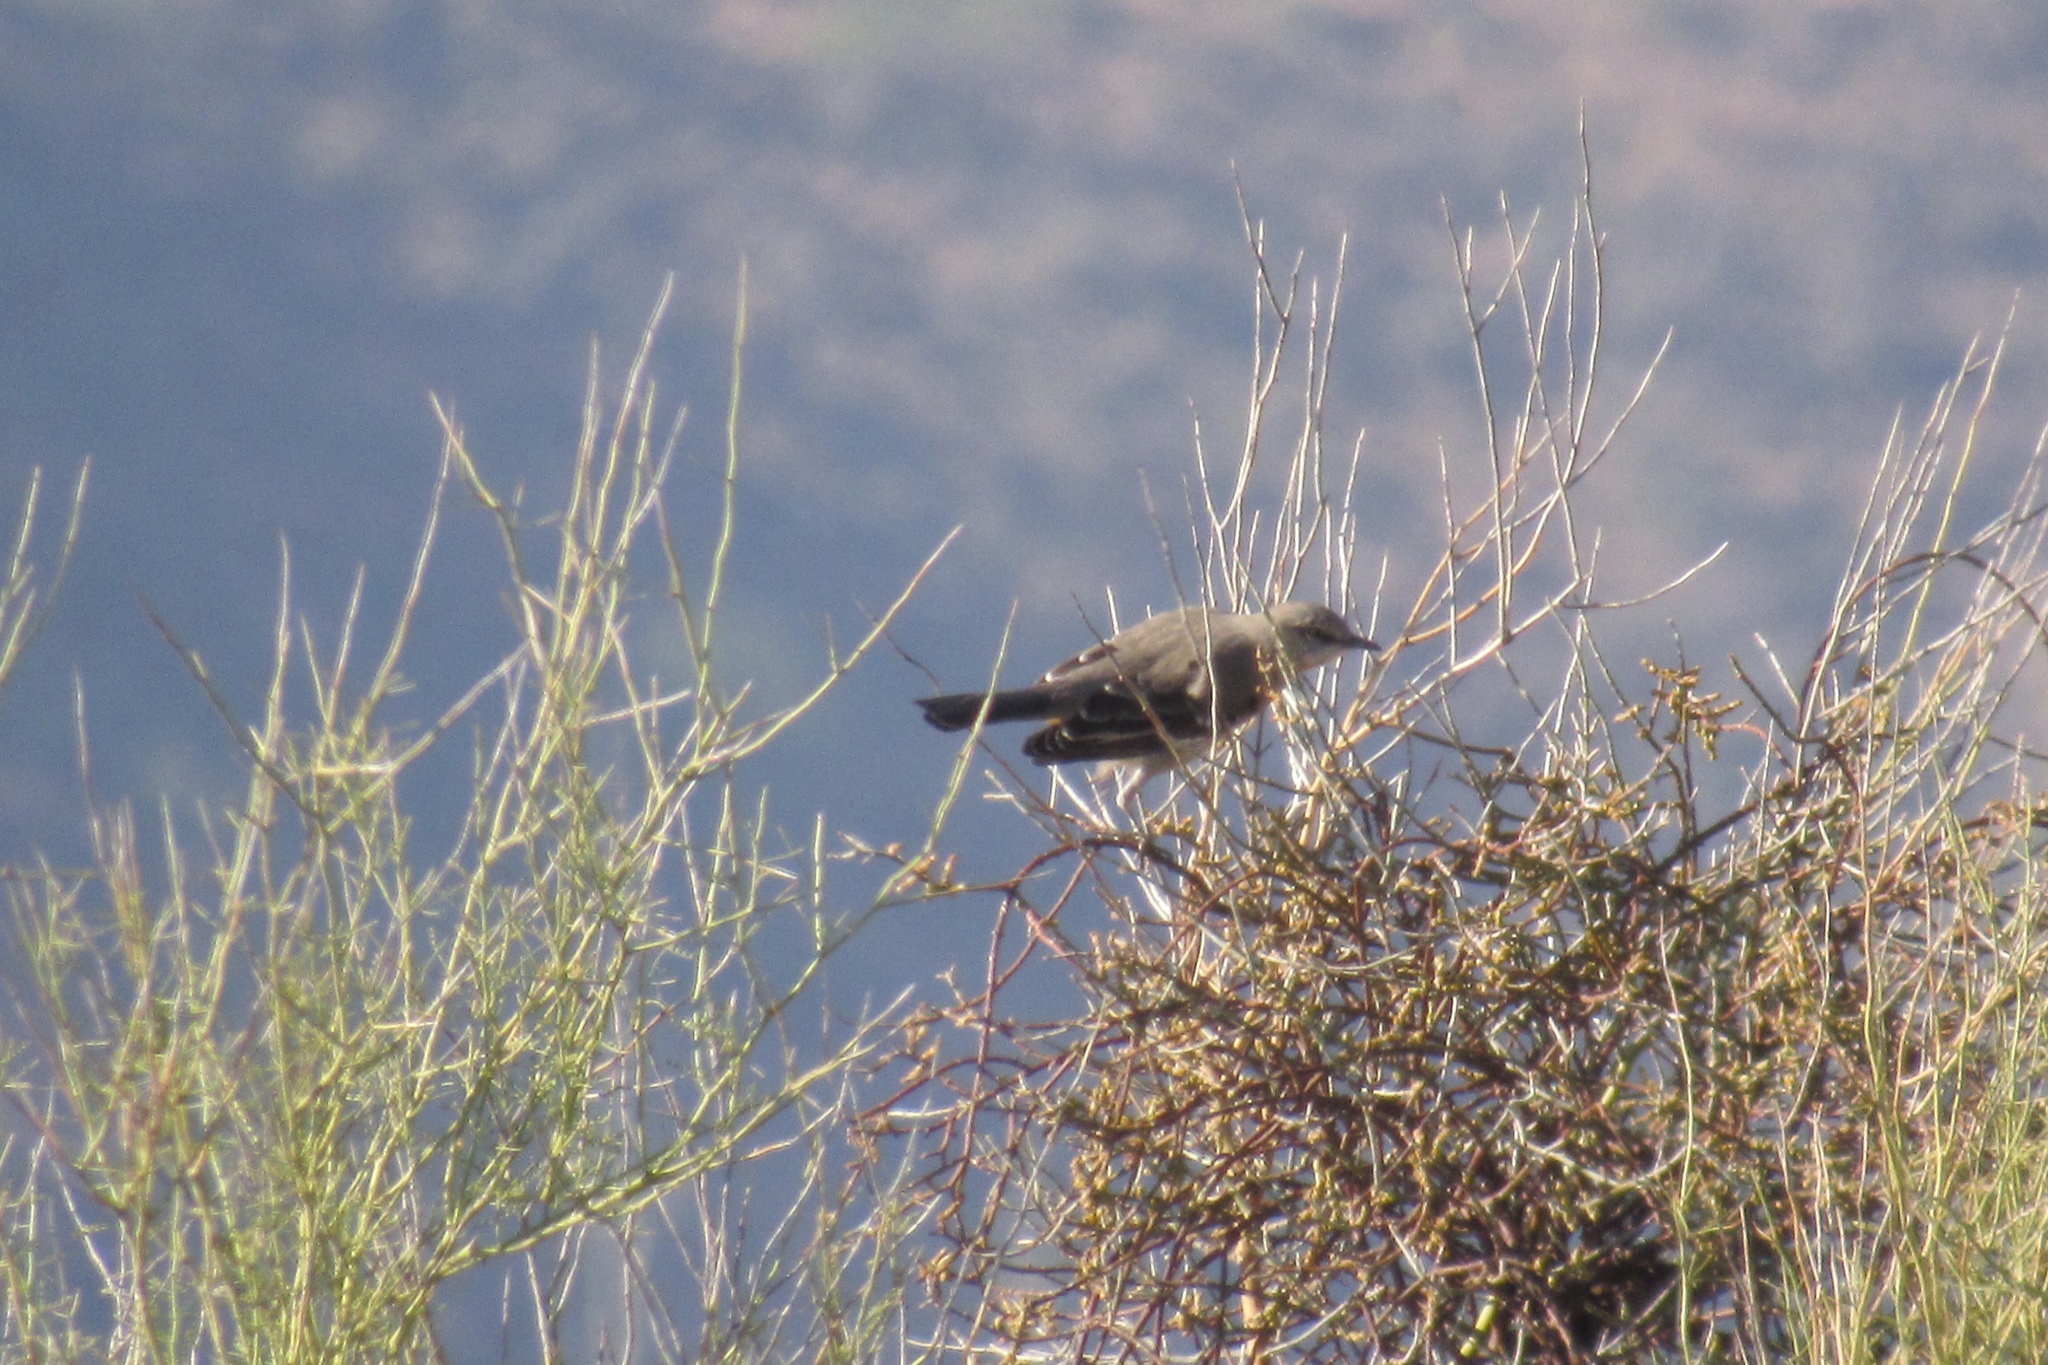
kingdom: Animalia
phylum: Chordata
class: Aves
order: Passeriformes
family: Mimidae
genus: Mimus
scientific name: Mimus polyglottos
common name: Northern mockingbird
